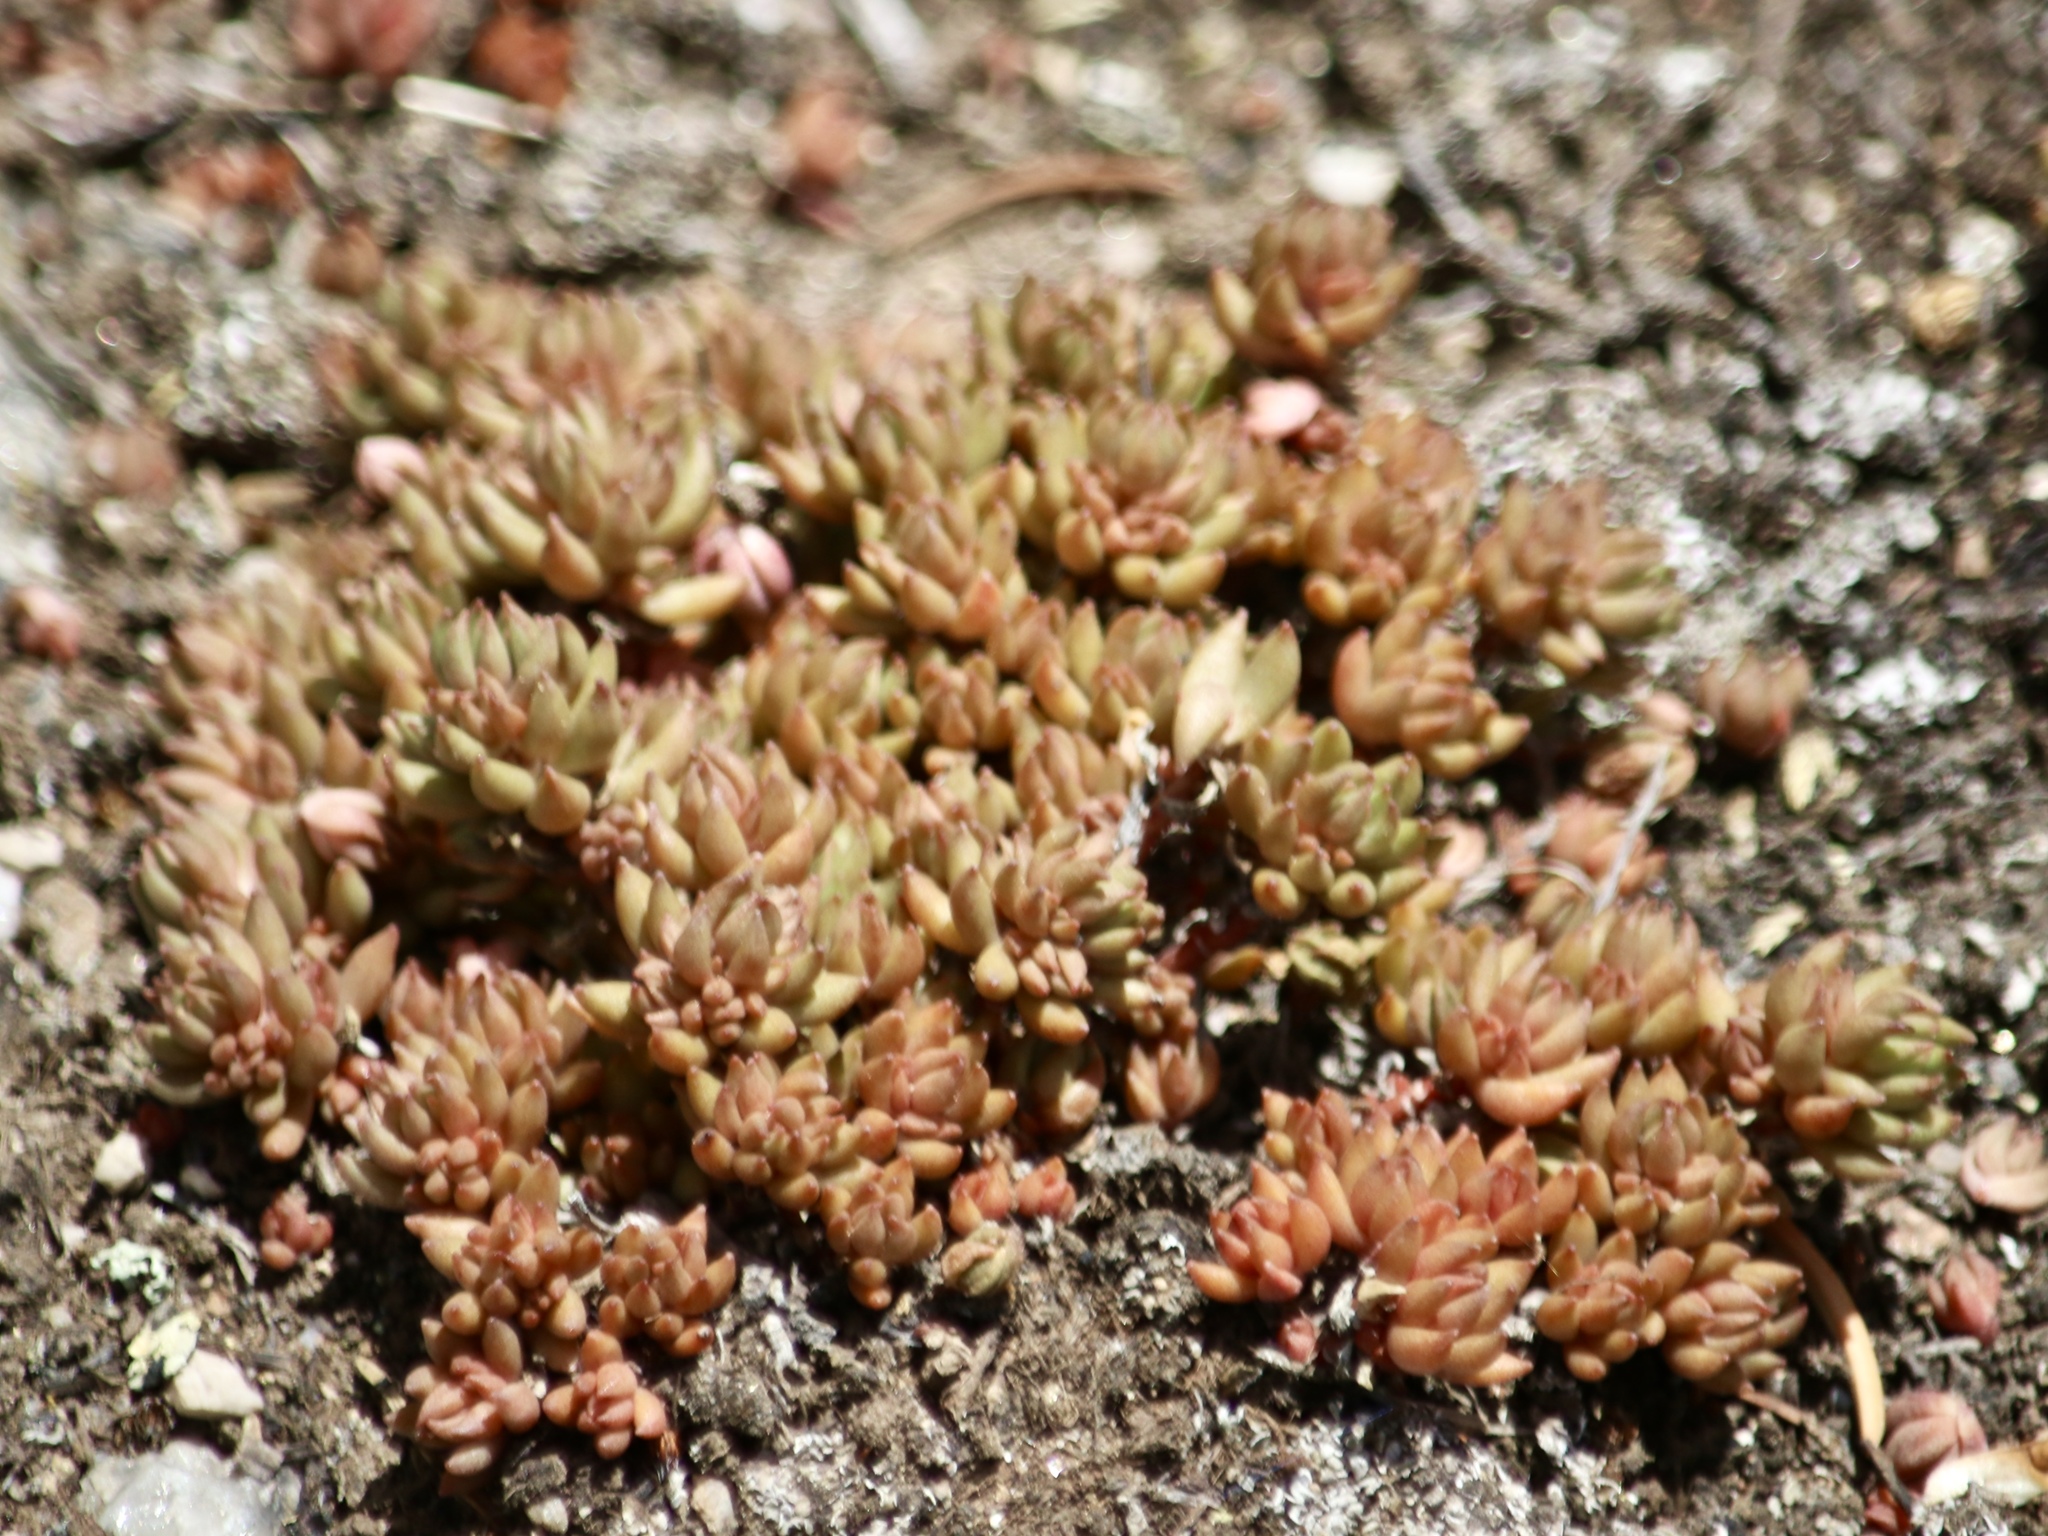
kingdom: Plantae
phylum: Tracheophyta
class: Magnoliopsida
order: Saxifragales
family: Crassulaceae
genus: Sedum
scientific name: Sedum lanceolatum
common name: Common stonecrop
